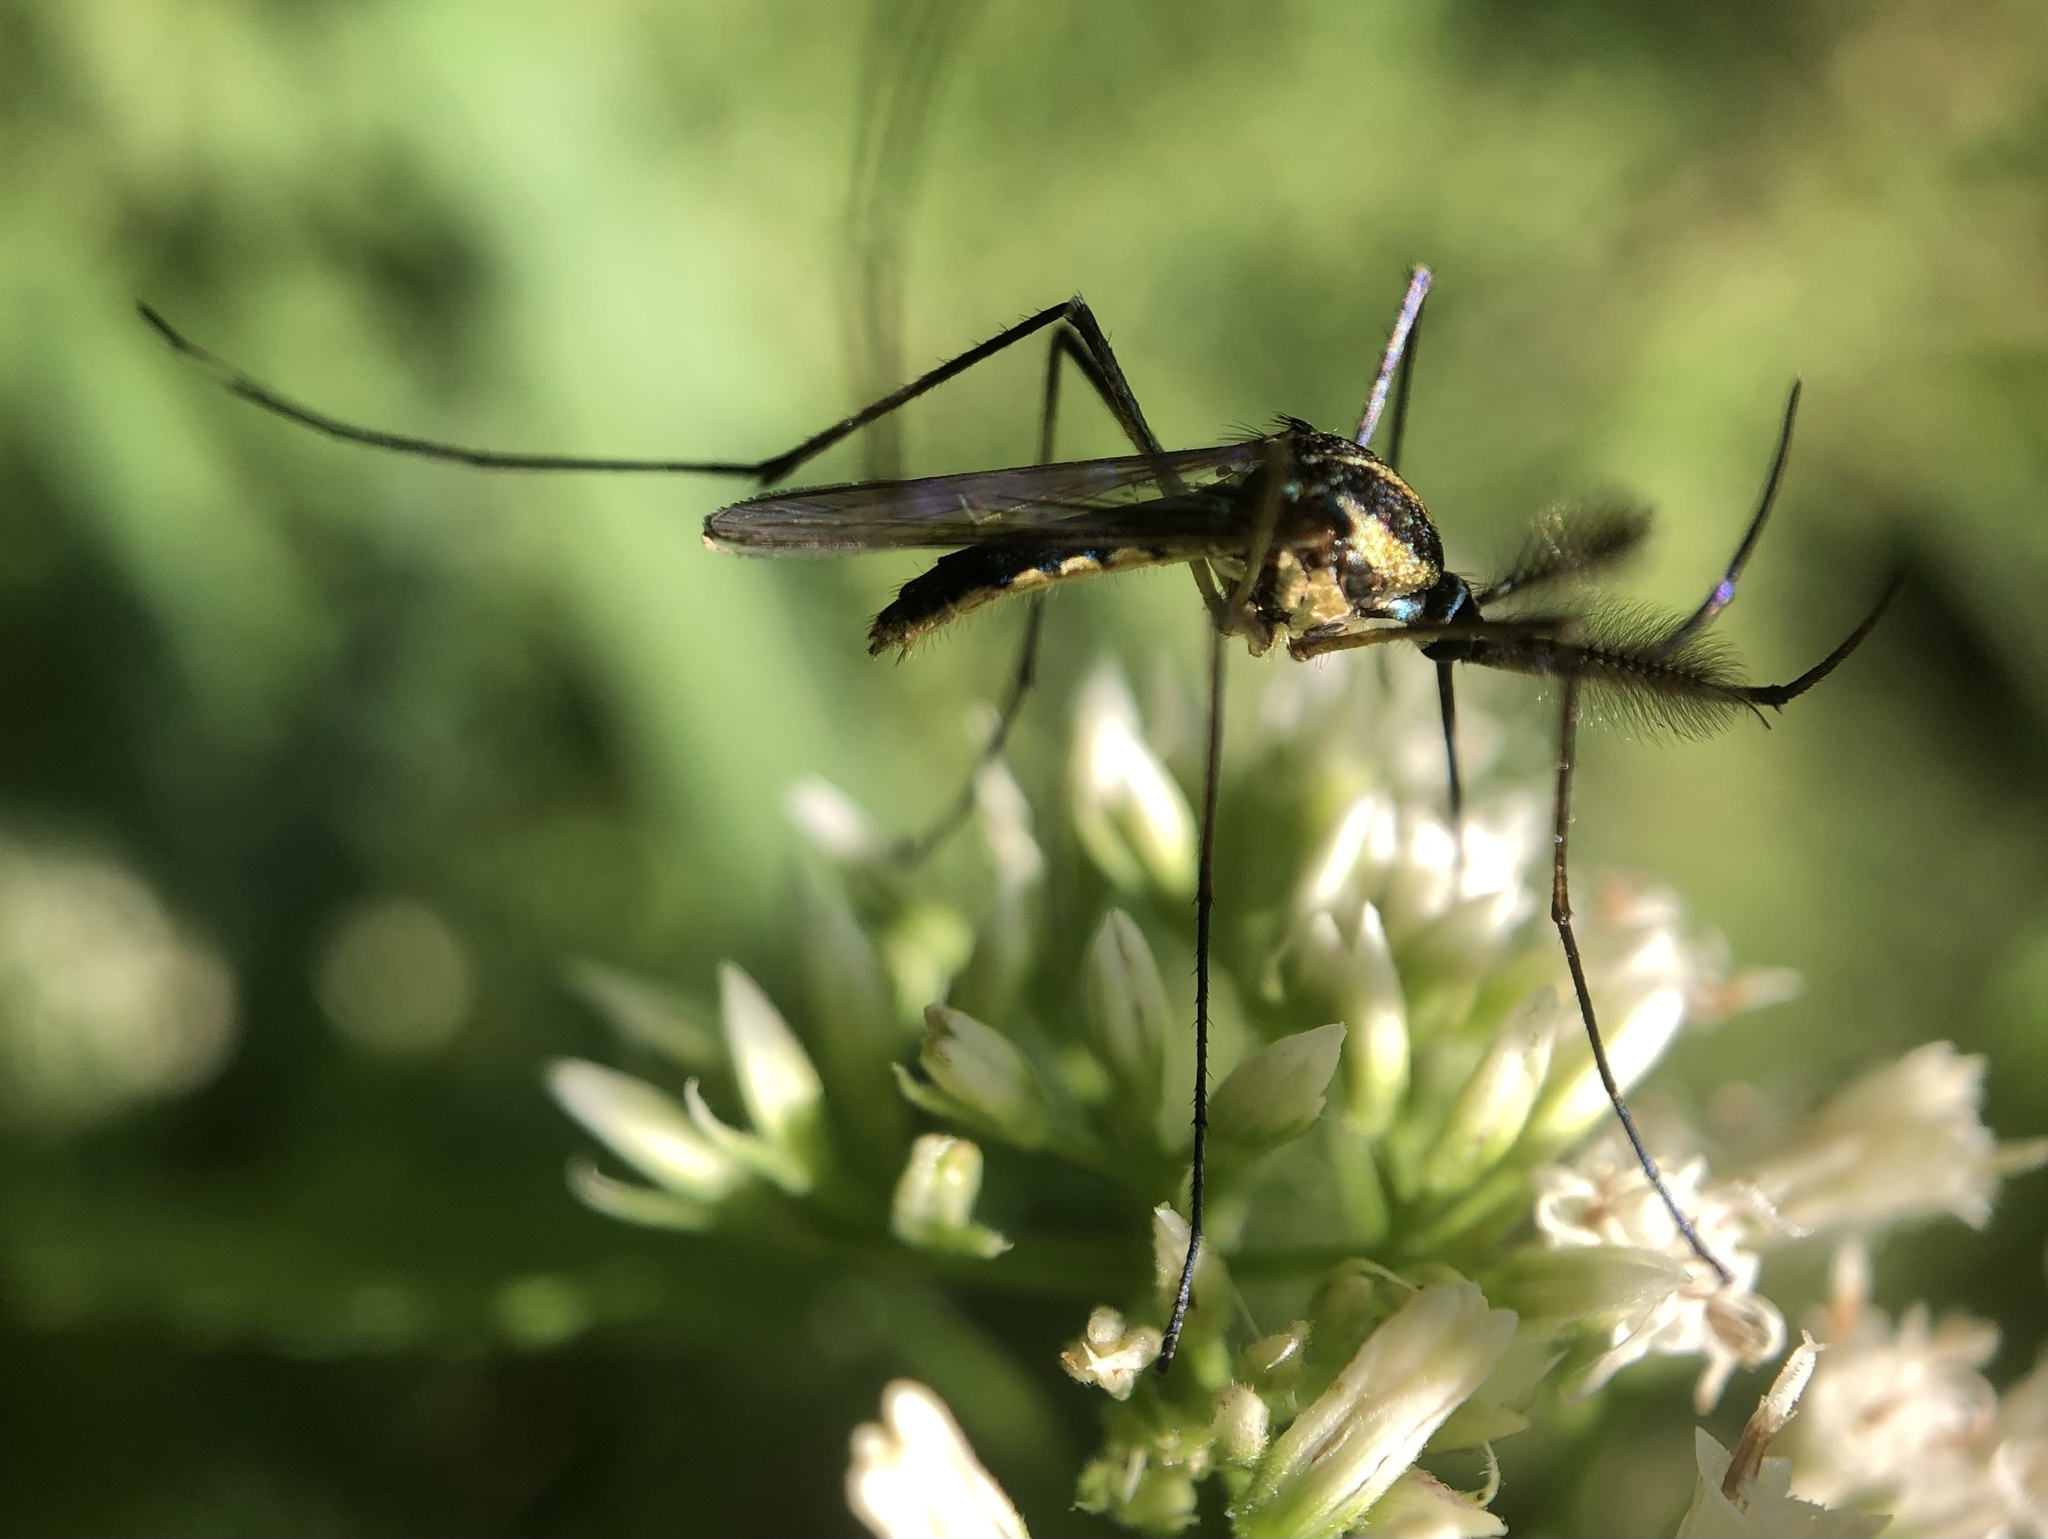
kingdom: Animalia
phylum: Arthropoda
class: Insecta
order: Diptera
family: Culicidae
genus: Toxorhynchites
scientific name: Toxorhynchites rutilus
